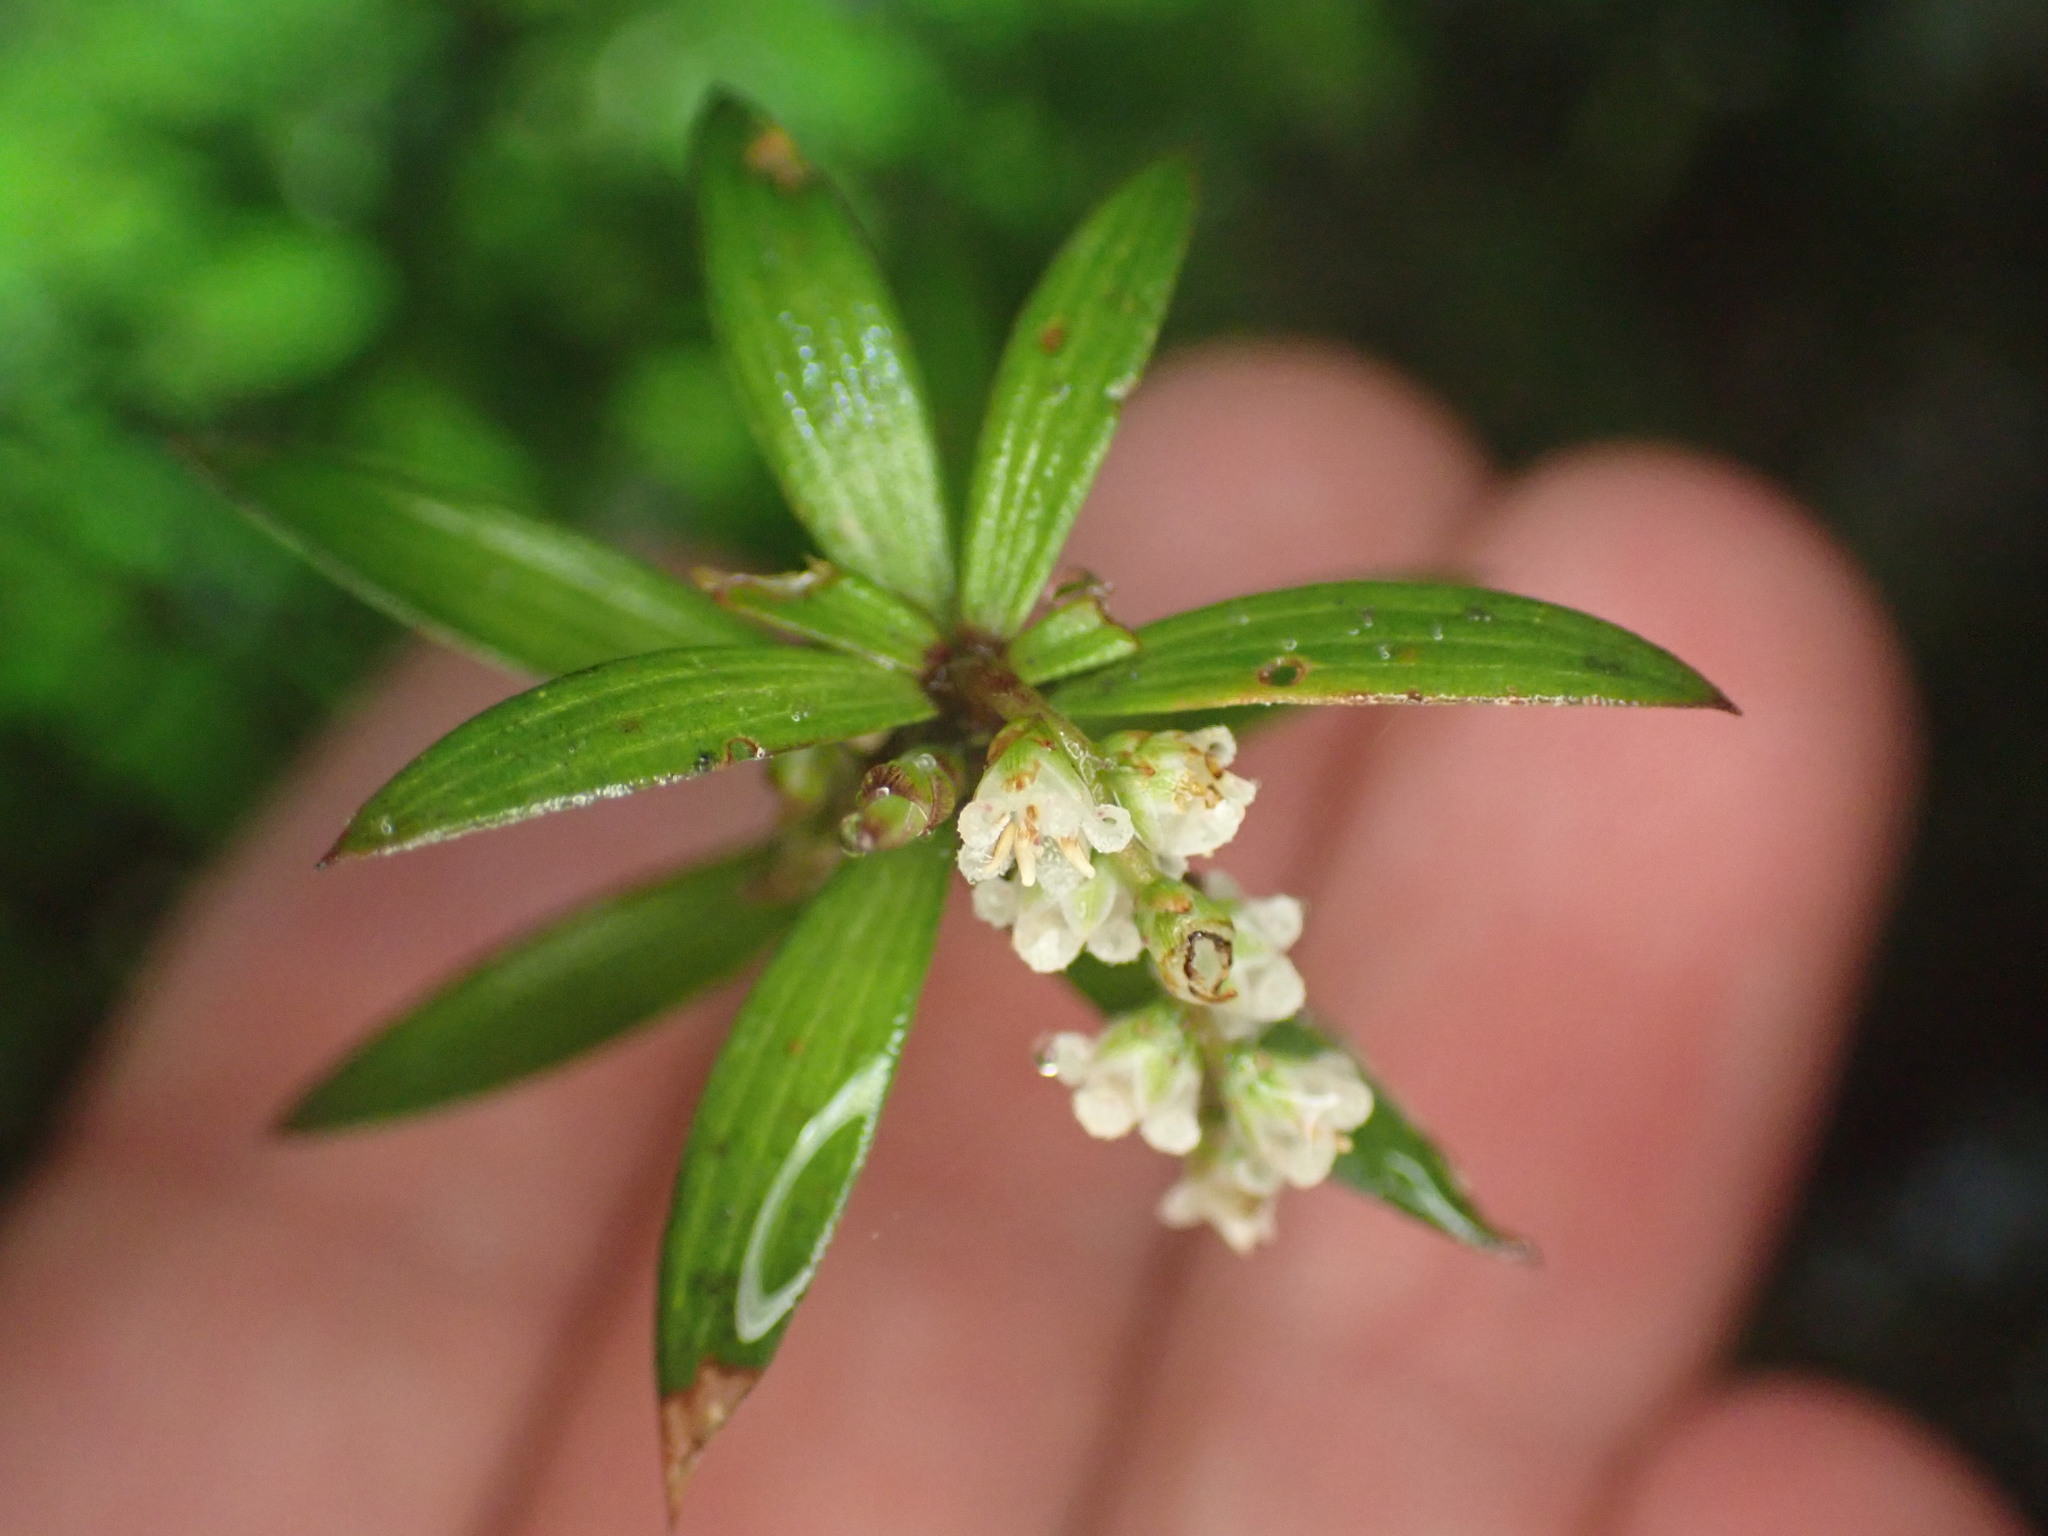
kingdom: Plantae
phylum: Tracheophyta
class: Magnoliopsida
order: Ericales
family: Ericaceae
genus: Leucopogon
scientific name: Leucopogon fasciculatus
